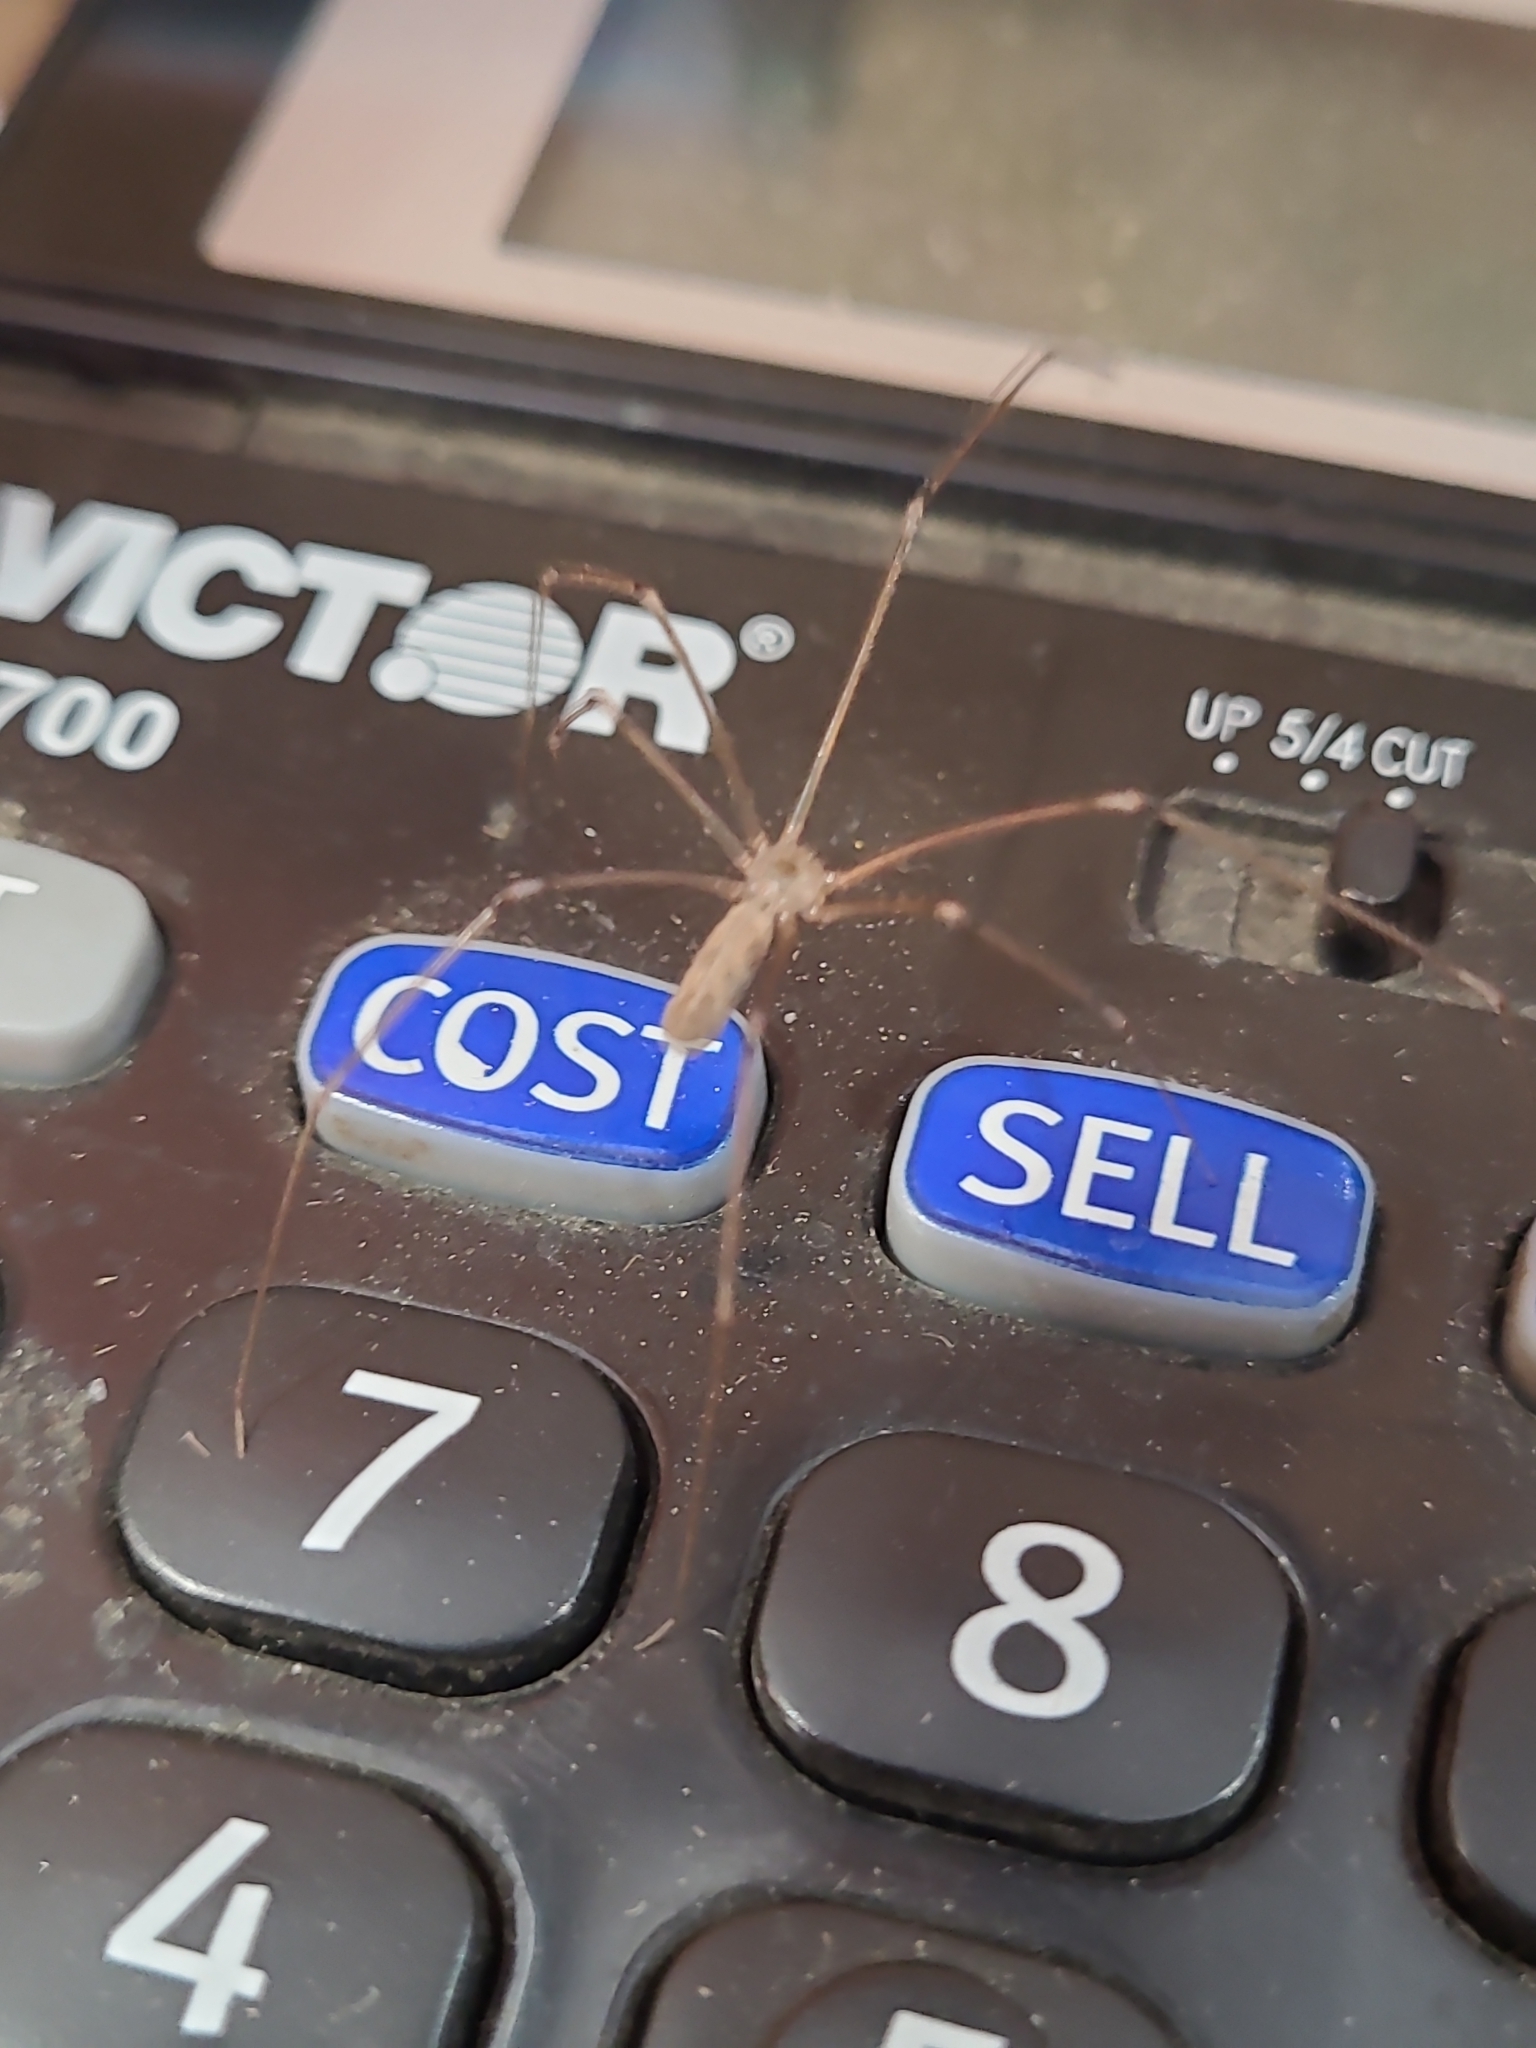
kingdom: Animalia
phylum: Arthropoda
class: Arachnida
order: Araneae
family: Pholcidae
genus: Pholcus
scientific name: Pholcus phalangioides
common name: Longbodied cellar spider
